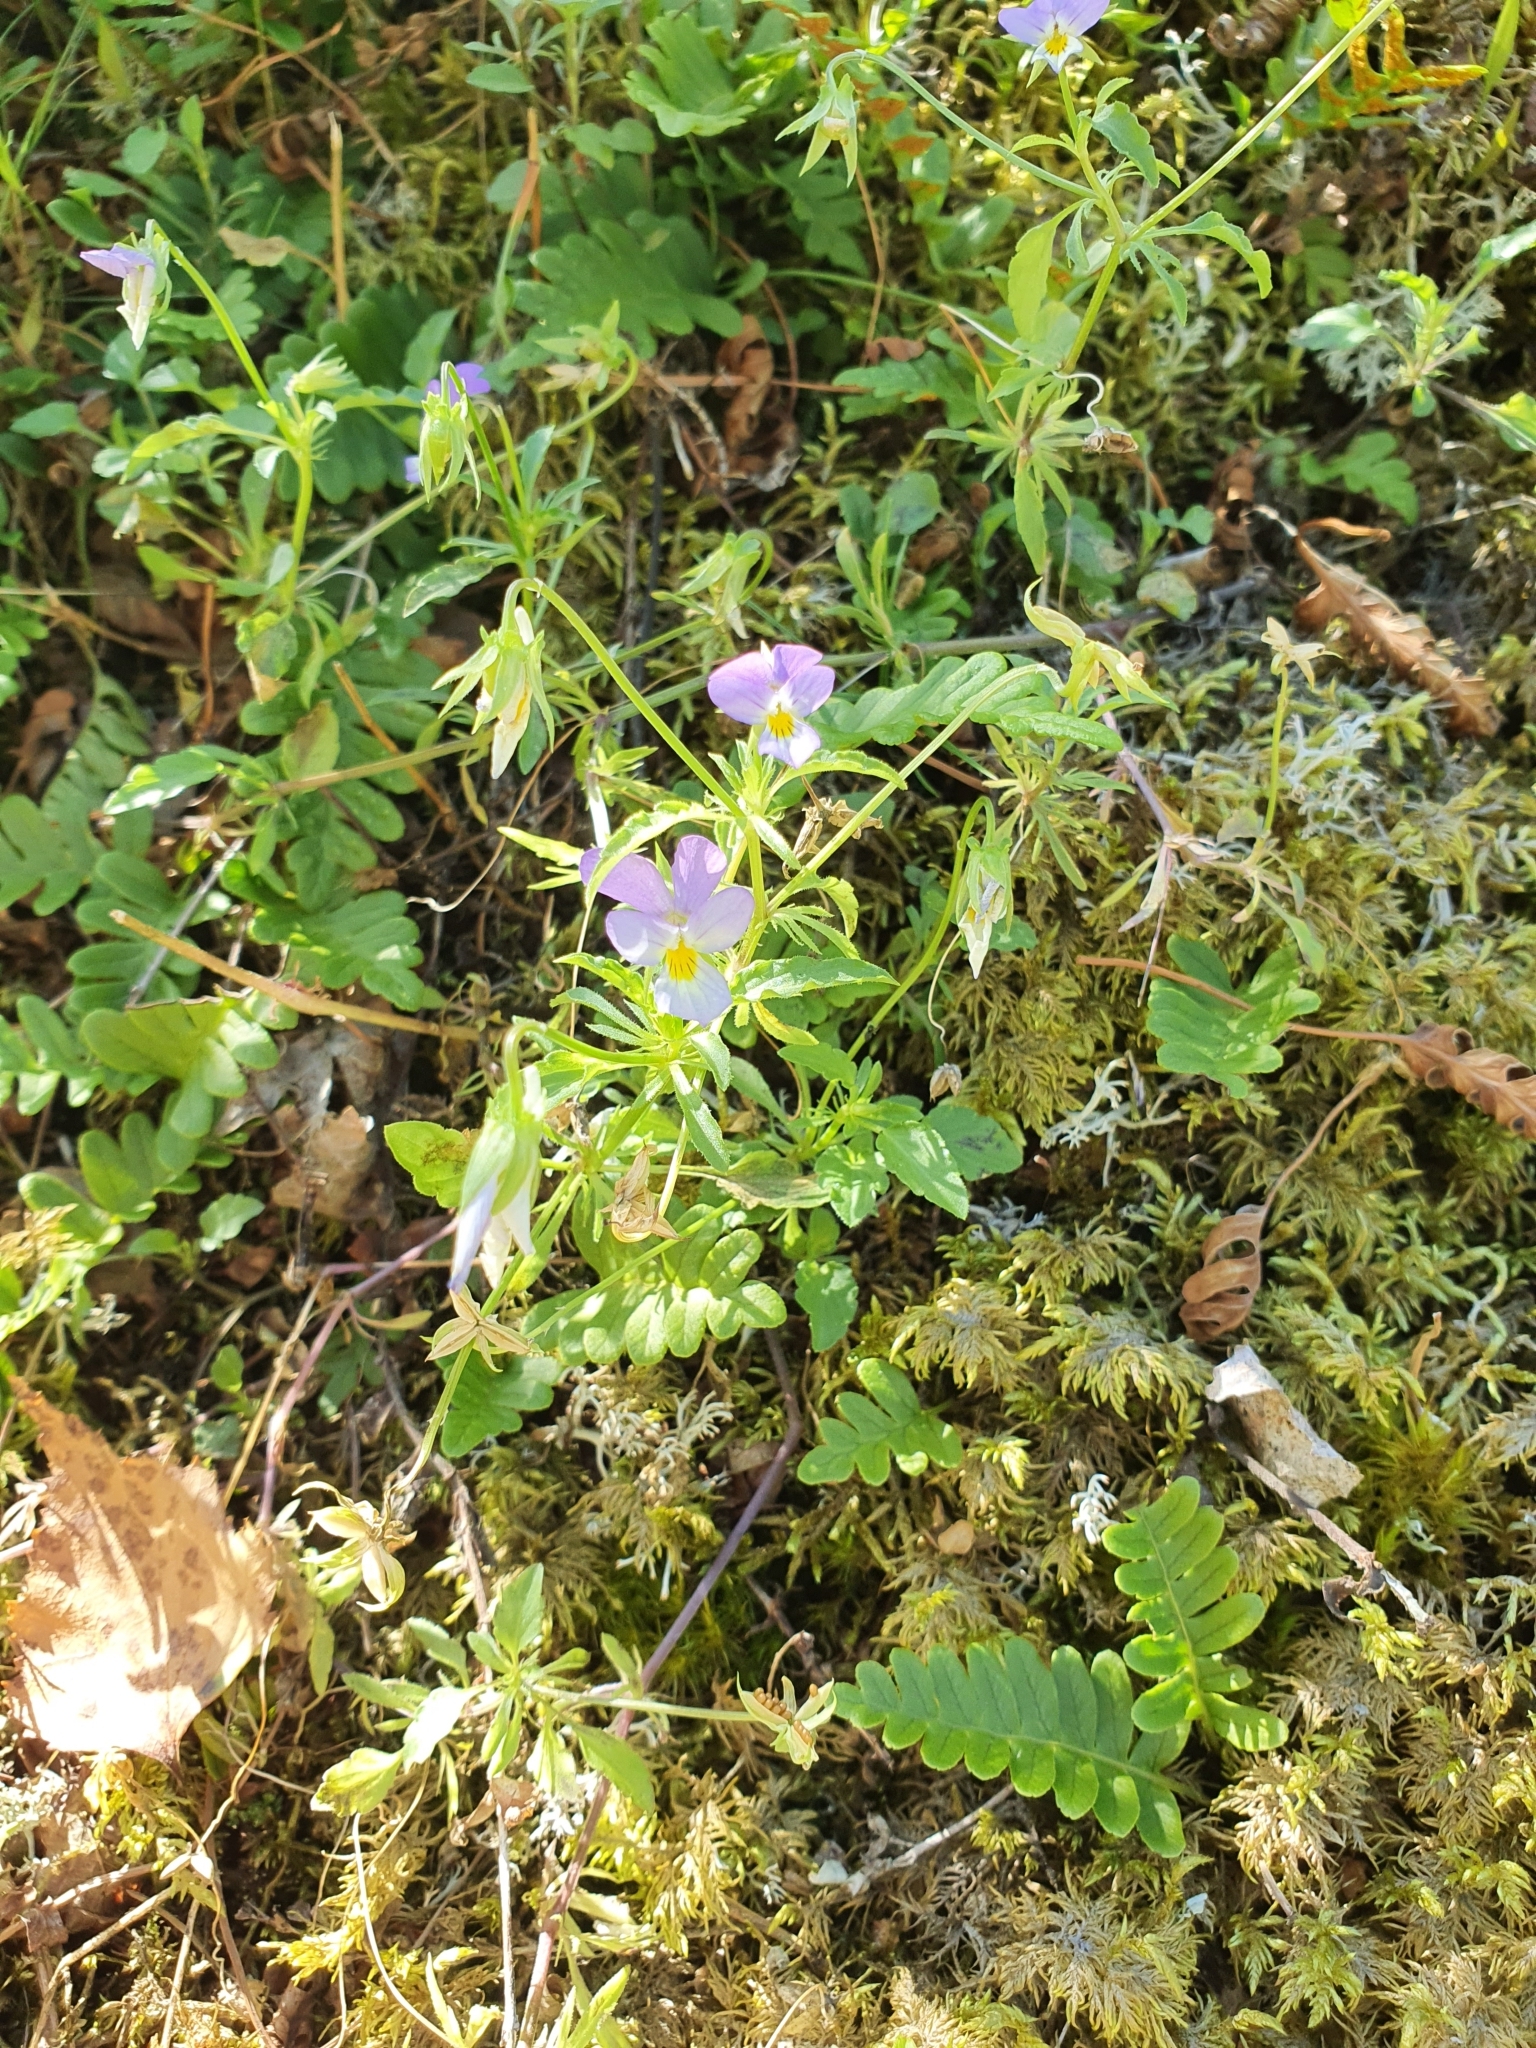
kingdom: Plantae
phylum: Tracheophyta
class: Magnoliopsida
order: Malpighiales
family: Violaceae
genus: Viola
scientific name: Viola tricolor
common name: Pansy
